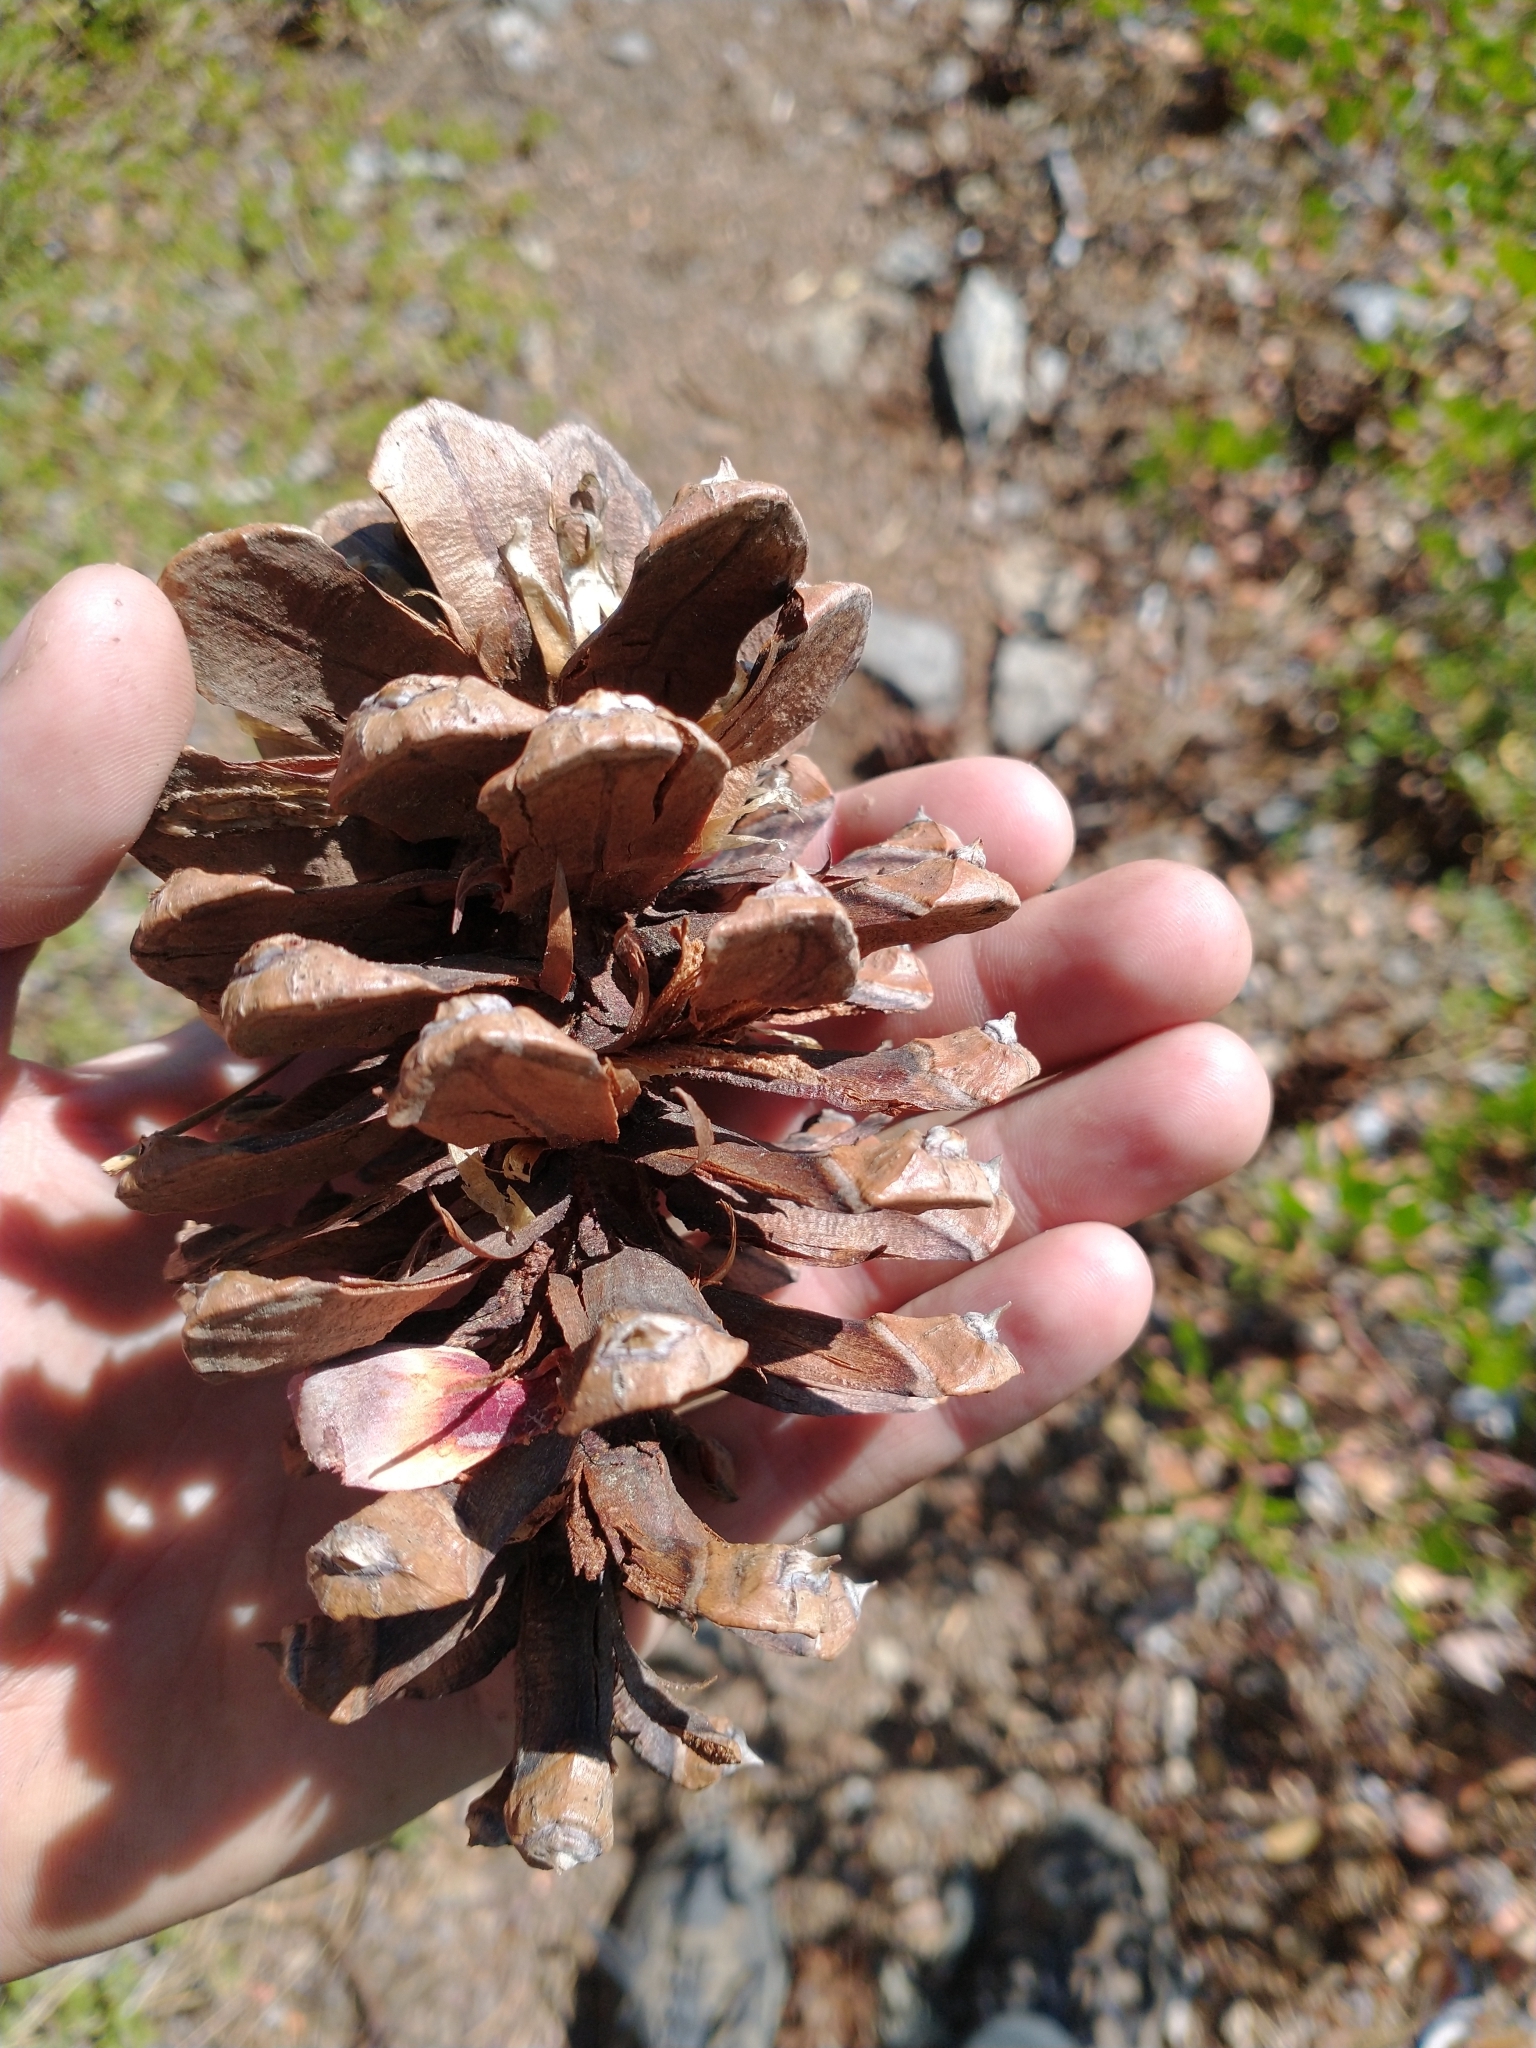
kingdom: Plantae
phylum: Tracheophyta
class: Pinopsida
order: Pinales
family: Pinaceae
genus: Pinus
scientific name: Pinus ponderosa
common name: Western yellow-pine
